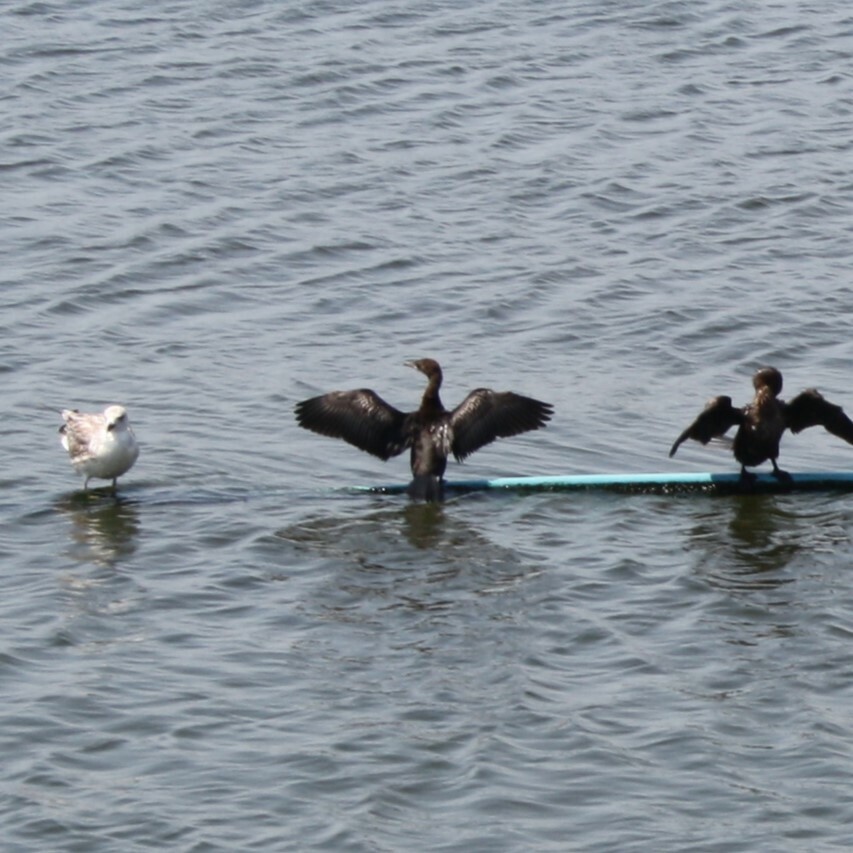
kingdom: Animalia
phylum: Chordata
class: Aves
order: Suliformes
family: Phalacrocoracidae
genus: Microcarbo
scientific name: Microcarbo pygmaeus
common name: Pygmy cormorant
